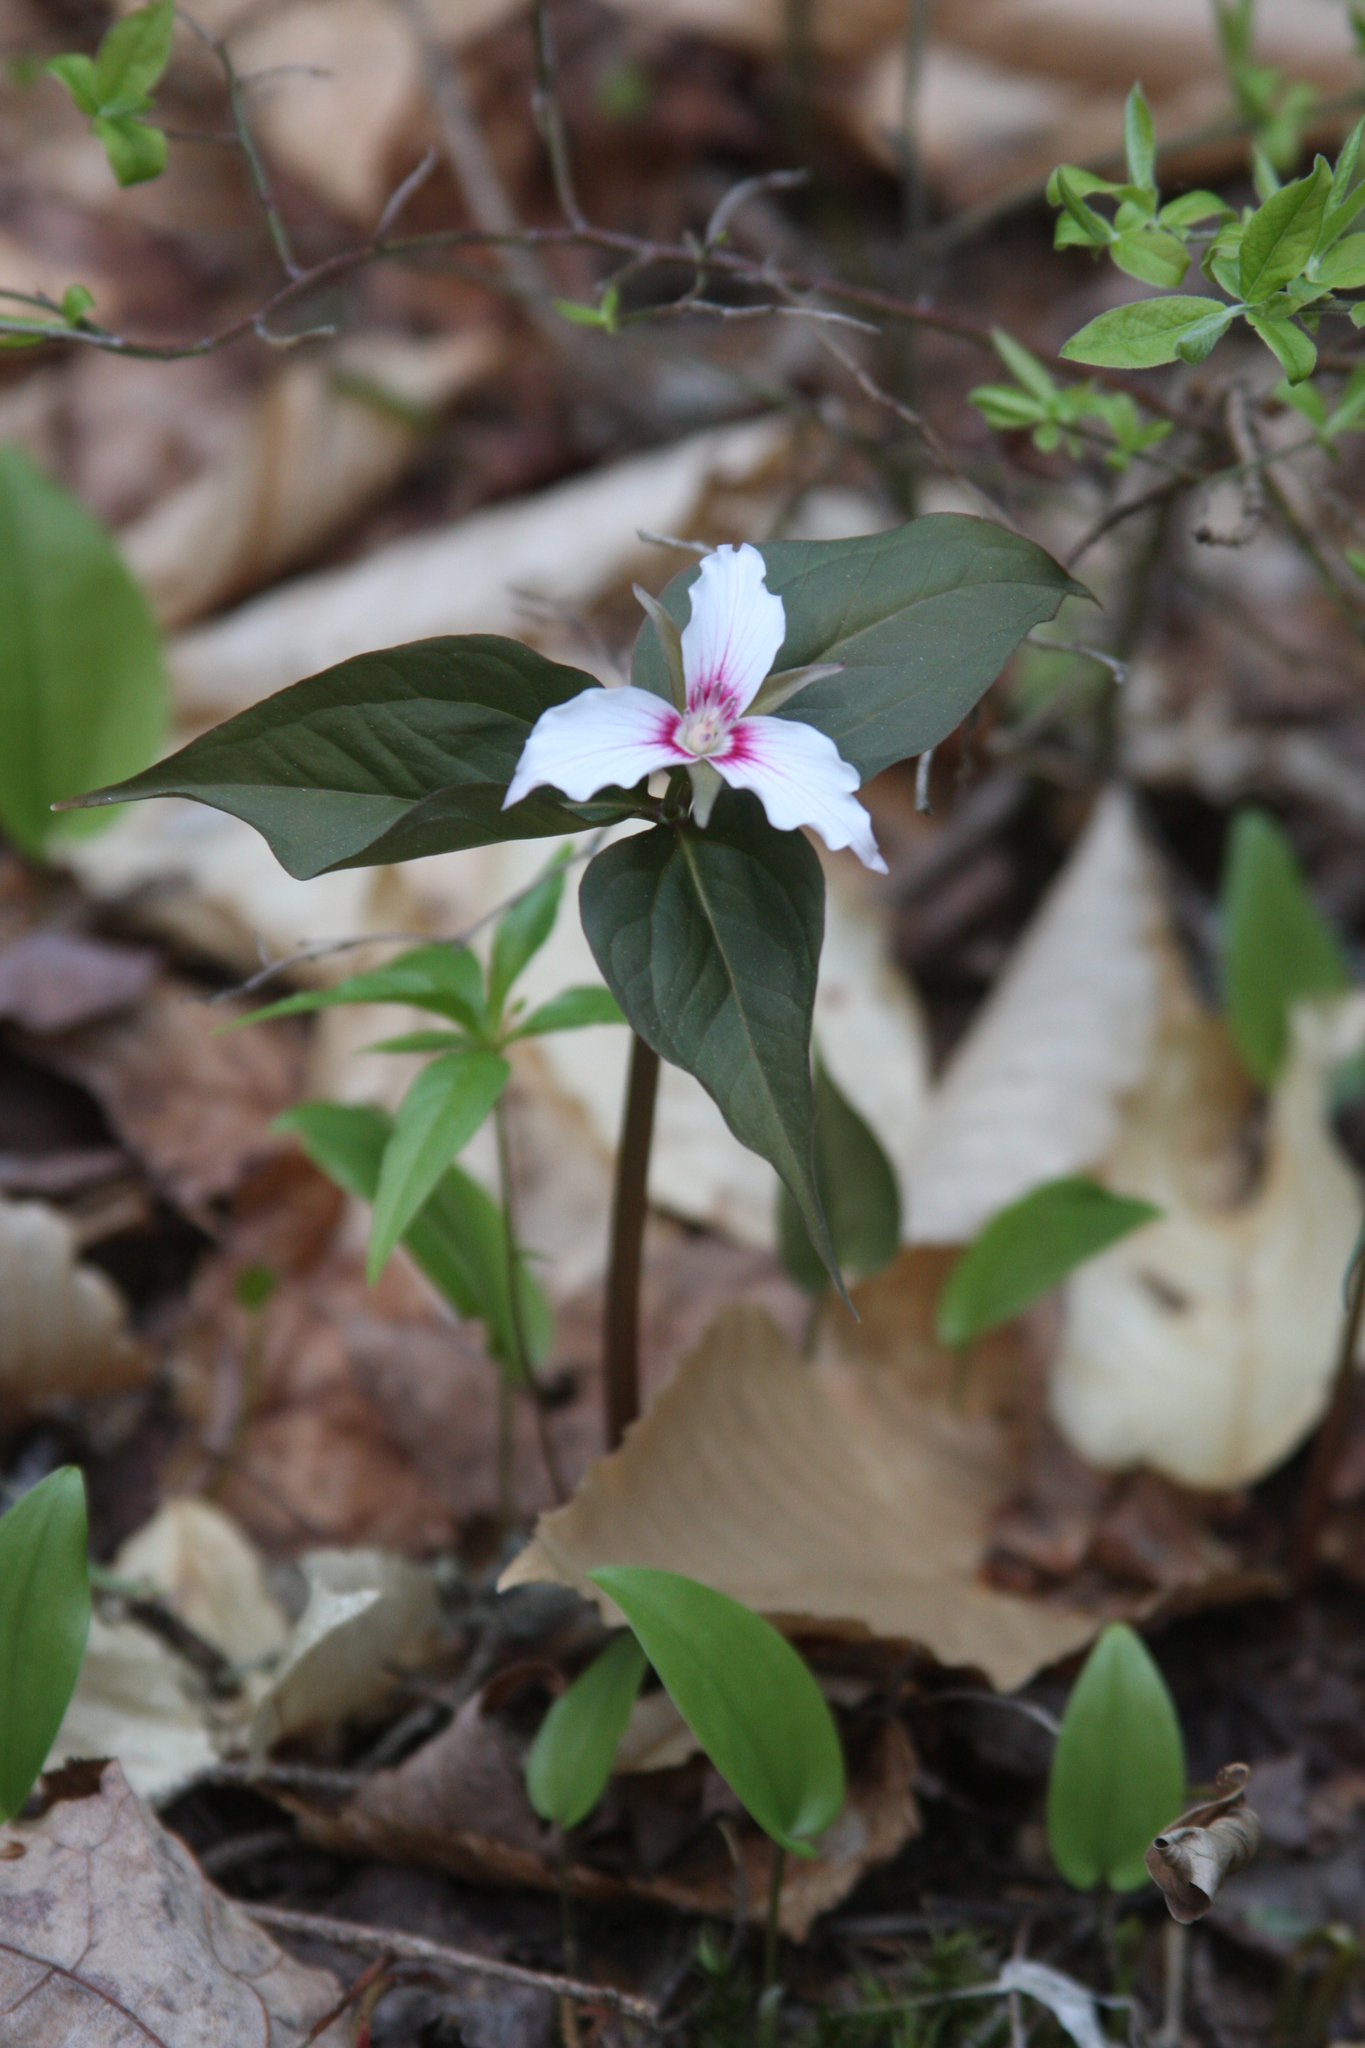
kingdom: Plantae
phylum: Tracheophyta
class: Liliopsida
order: Asparagales
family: Asparagaceae
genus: Maianthemum
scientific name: Maianthemum canadense
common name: False lily-of-the-valley
